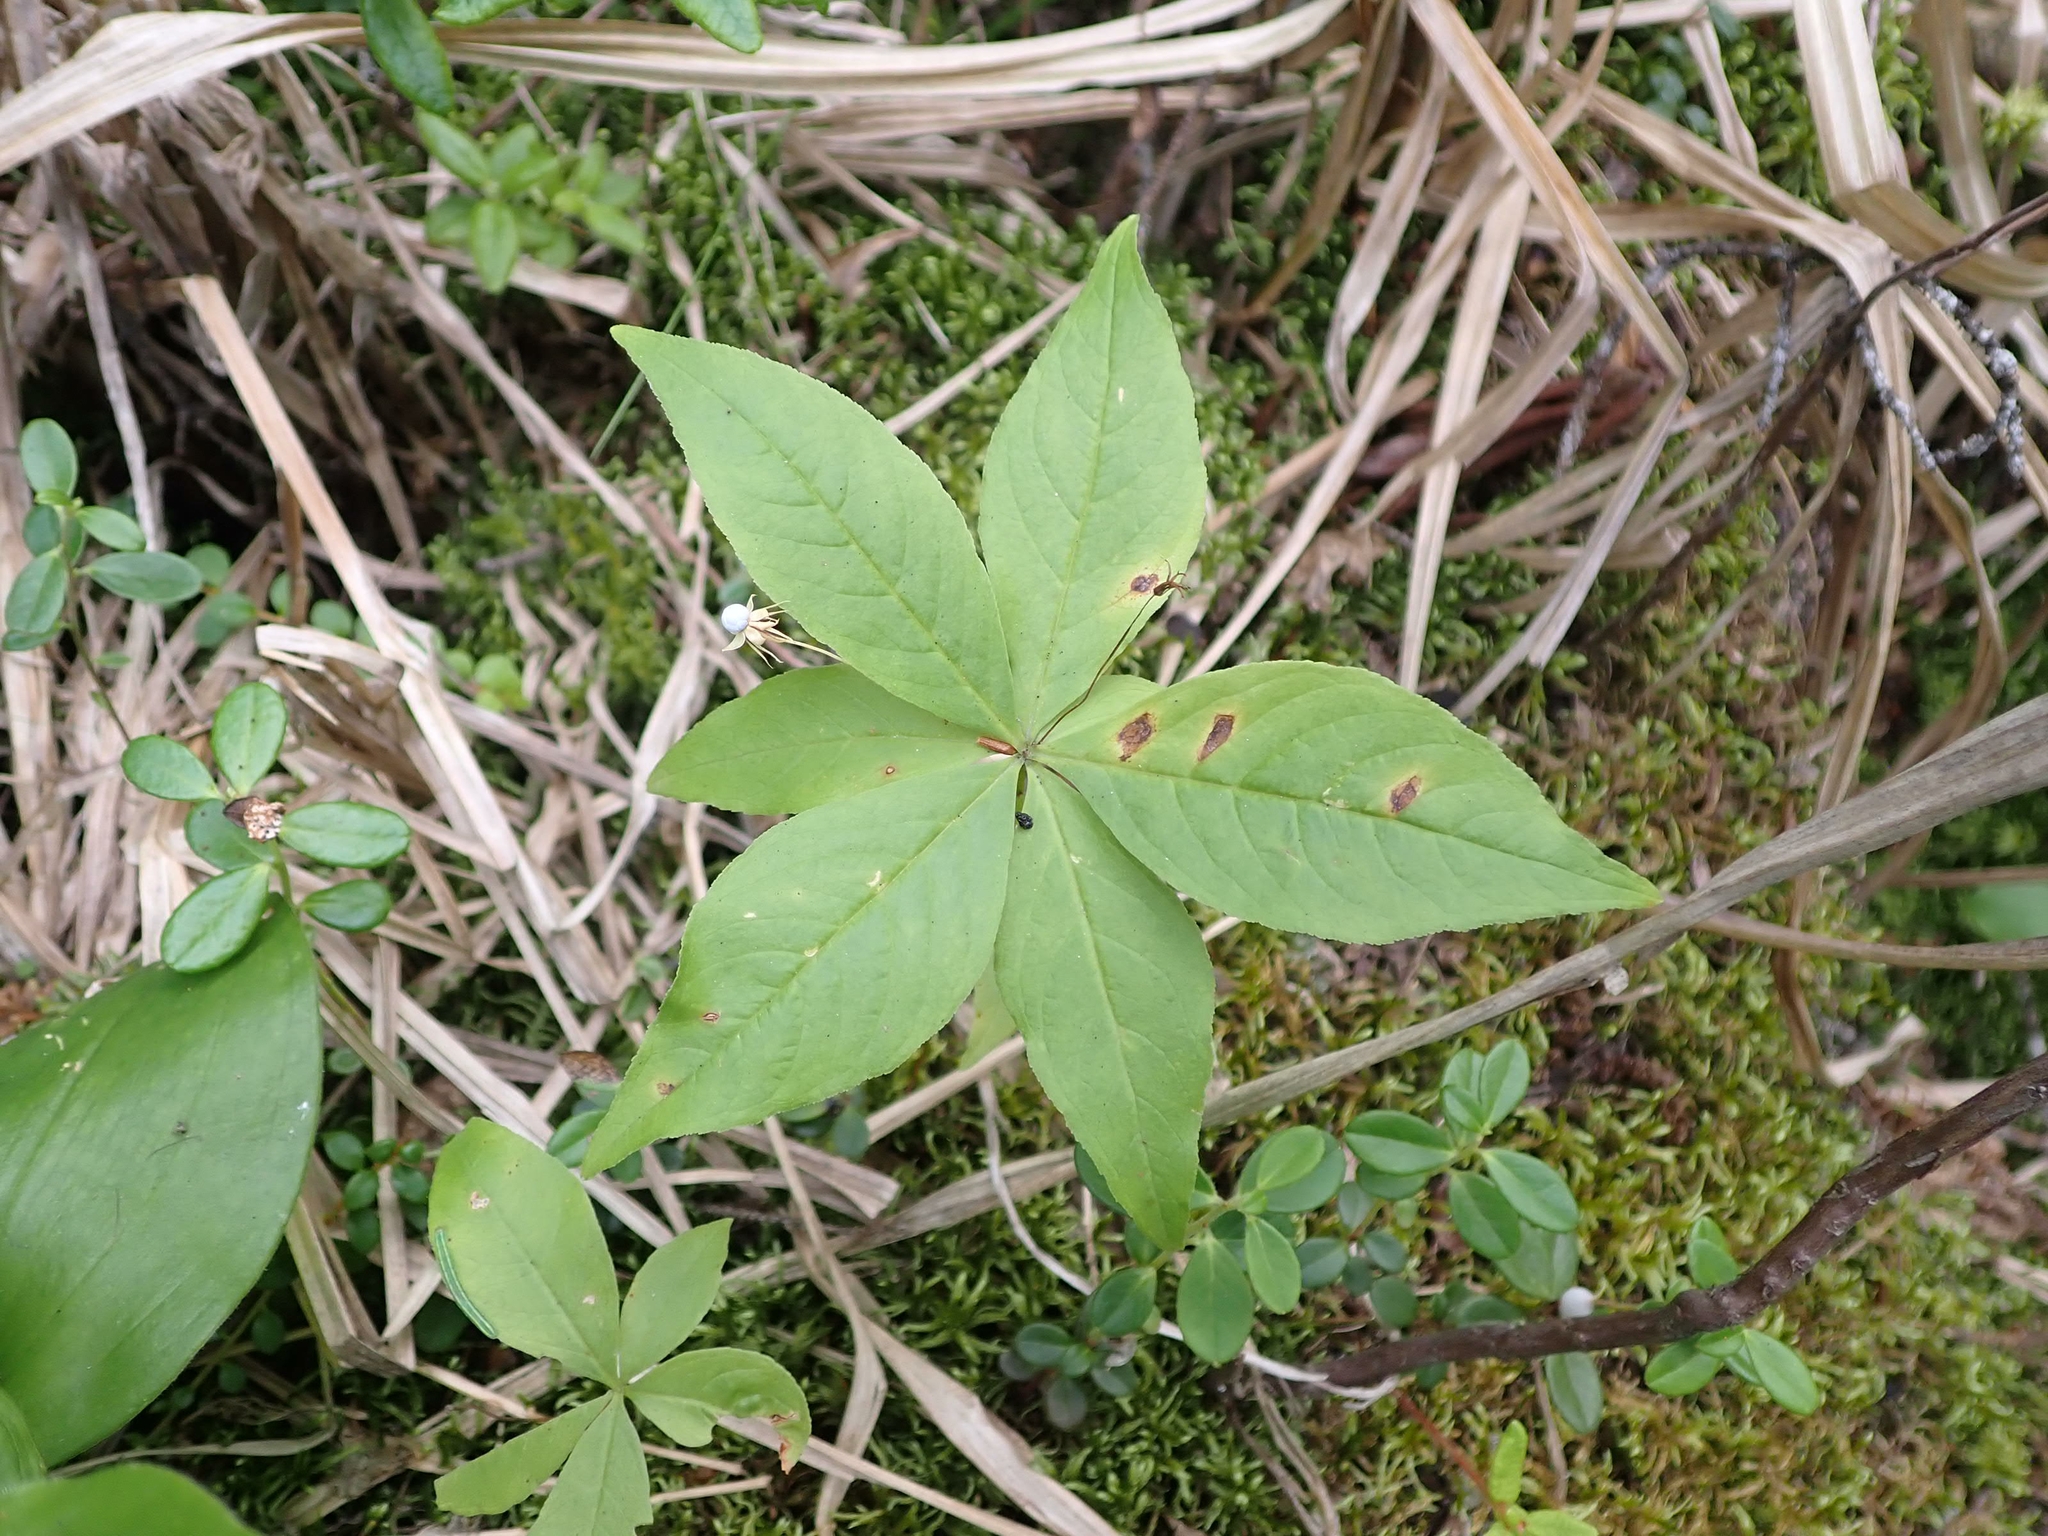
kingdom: Plantae
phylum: Tracheophyta
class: Magnoliopsida
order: Ericales
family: Primulaceae
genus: Lysimachia
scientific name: Lysimachia borealis
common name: American starflower
